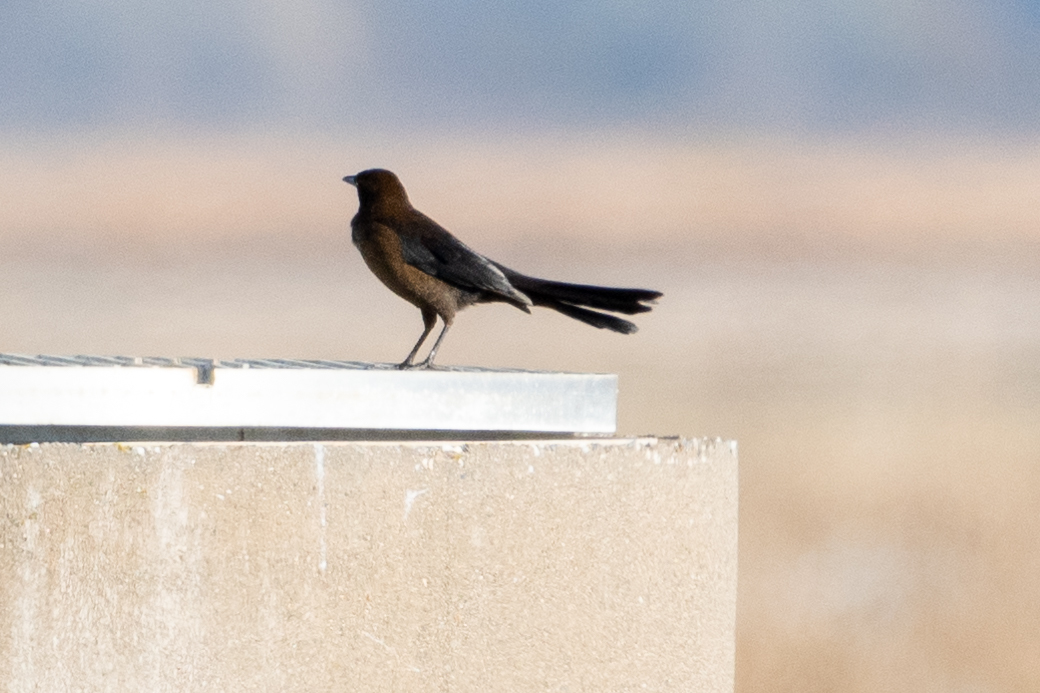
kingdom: Animalia
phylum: Chordata
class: Aves
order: Passeriformes
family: Icteridae
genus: Quiscalus
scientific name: Quiscalus mexicanus
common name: Great-tailed grackle
